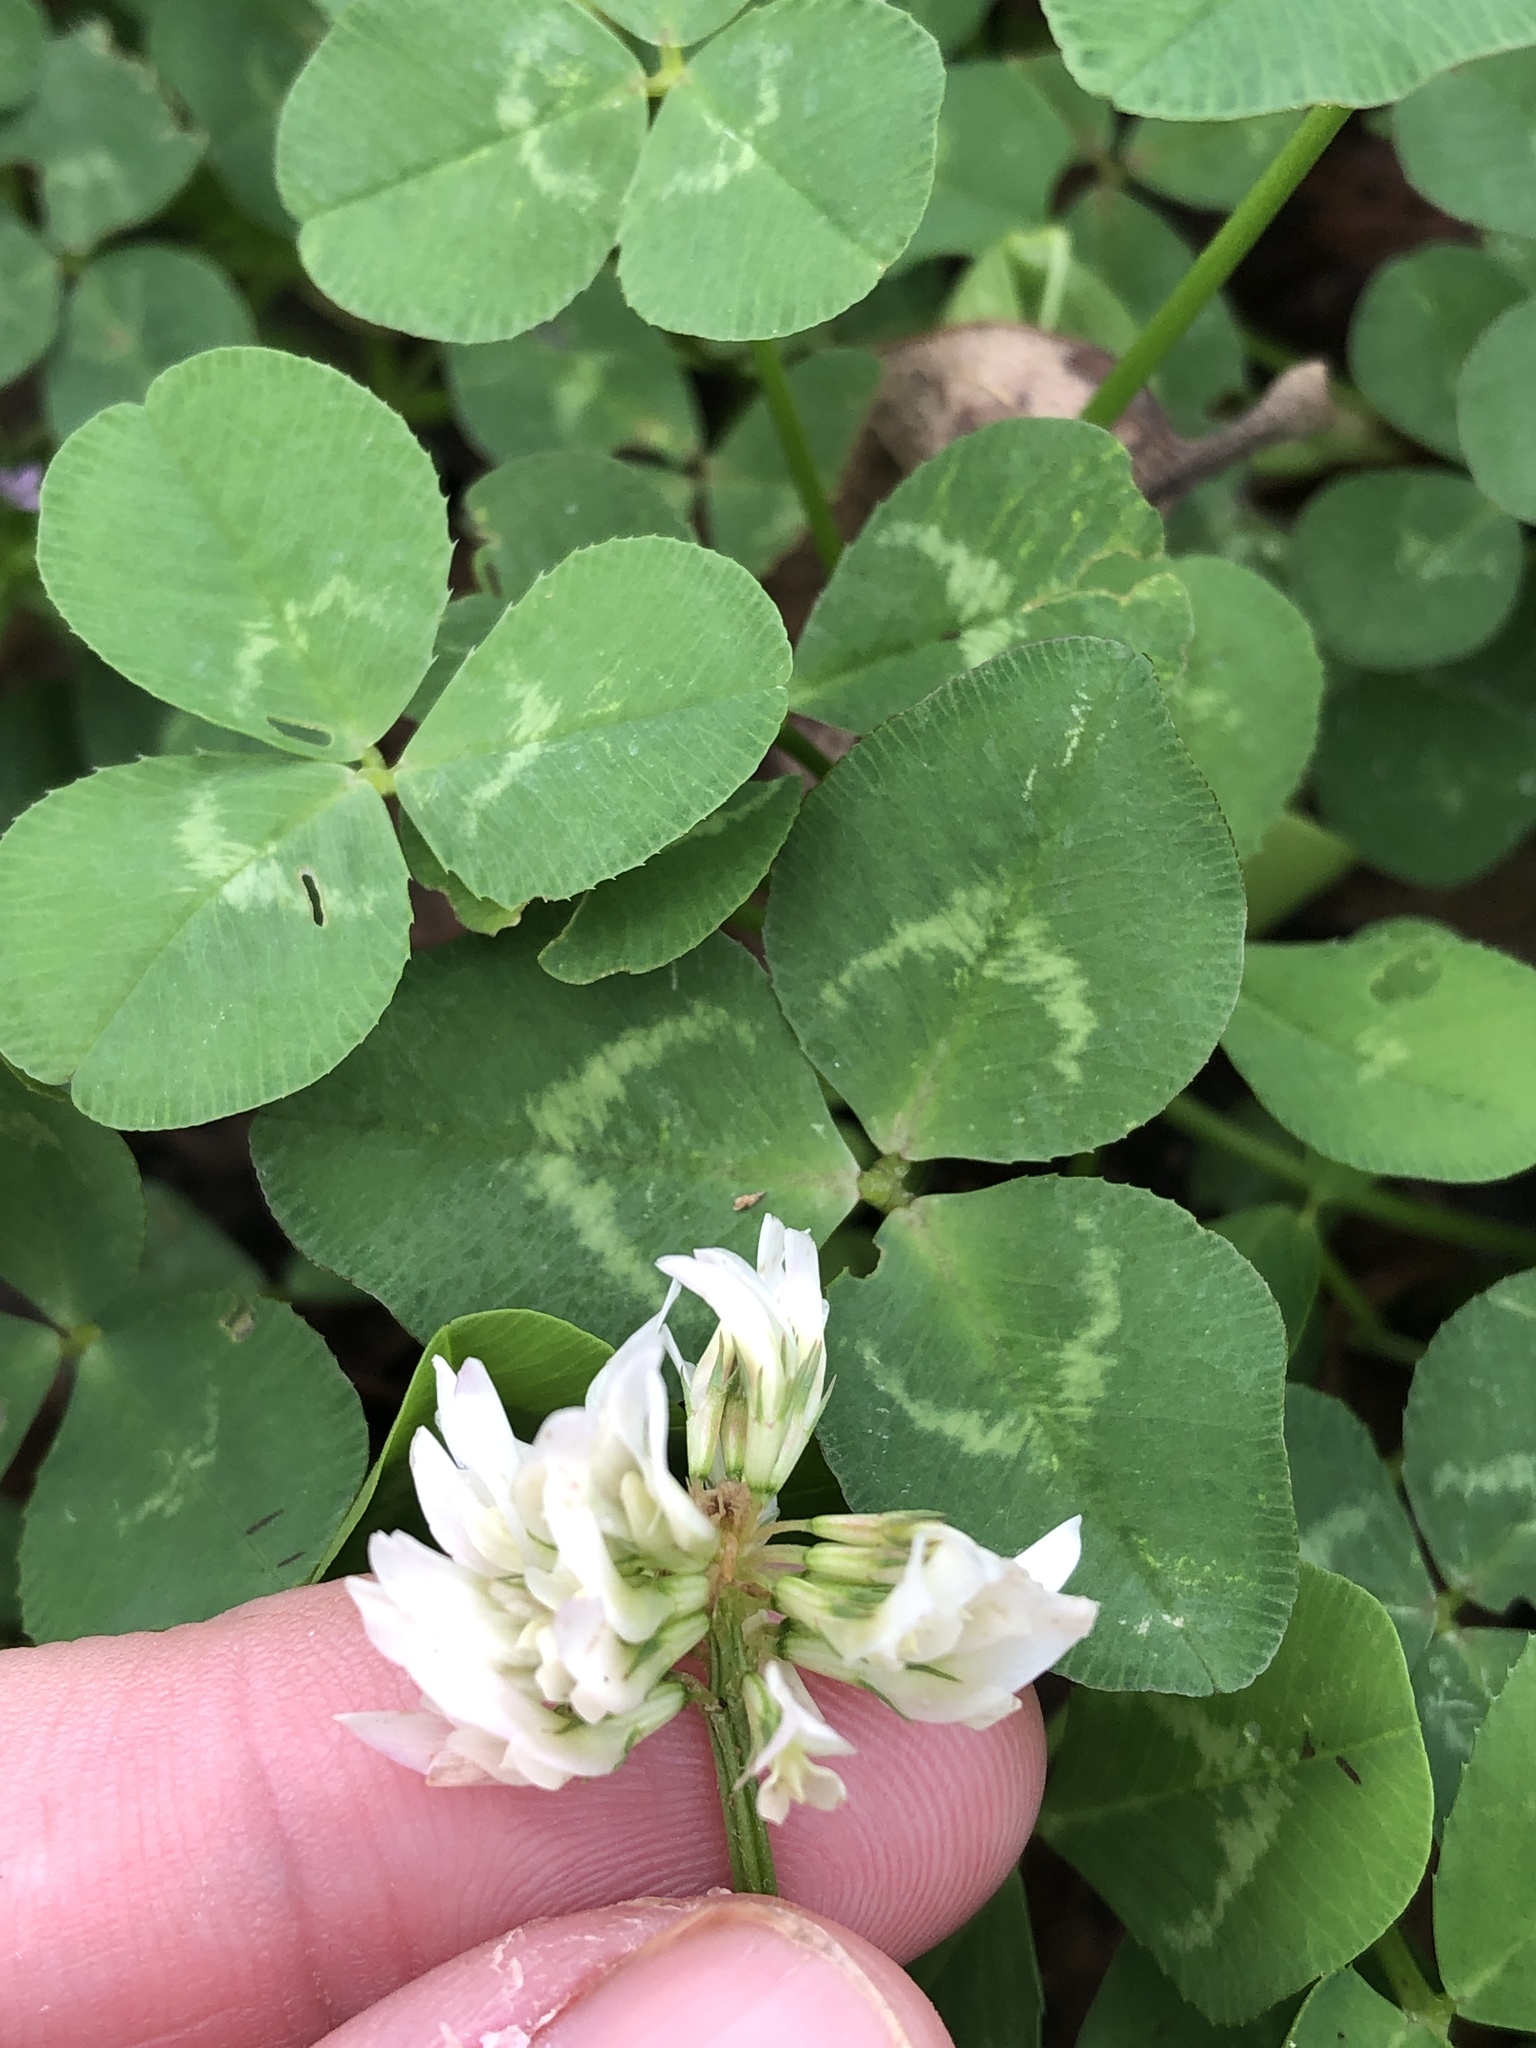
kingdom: Plantae
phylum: Tracheophyta
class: Magnoliopsida
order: Fabales
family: Fabaceae
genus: Trifolium
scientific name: Trifolium repens
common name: White clover
